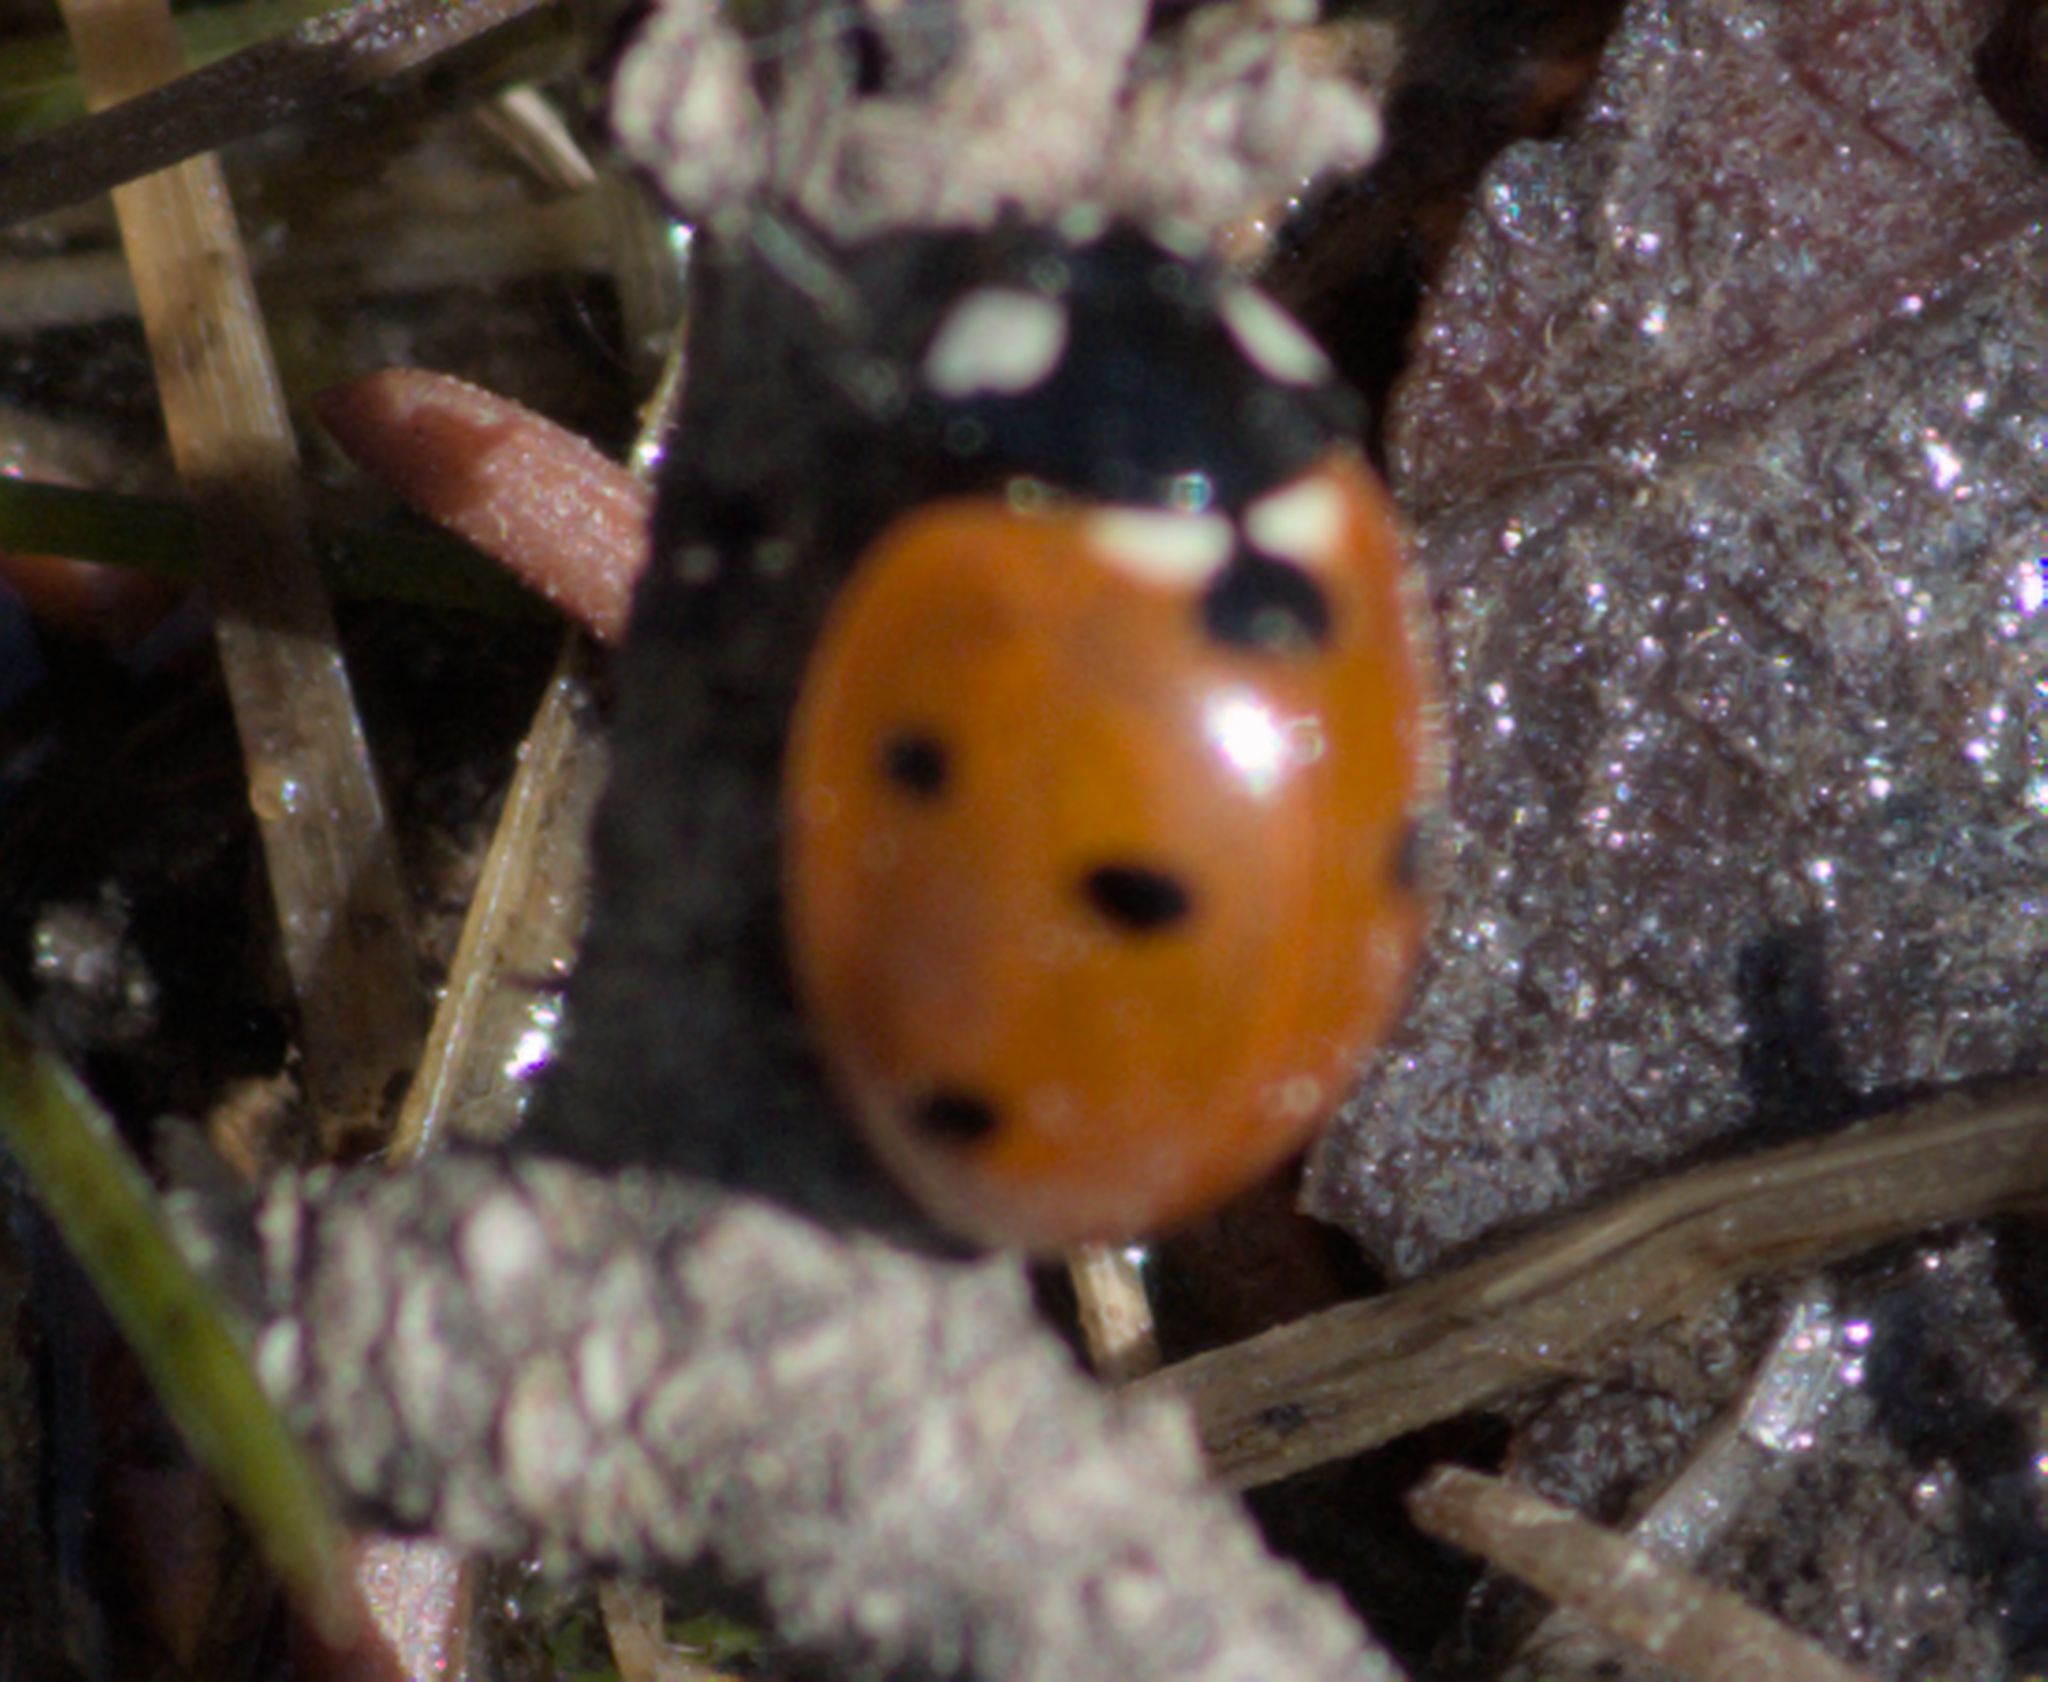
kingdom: Animalia
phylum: Arthropoda
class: Insecta
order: Coleoptera
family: Coccinellidae
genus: Coccinella
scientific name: Coccinella septempunctata
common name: Sevenspotted lady beetle
